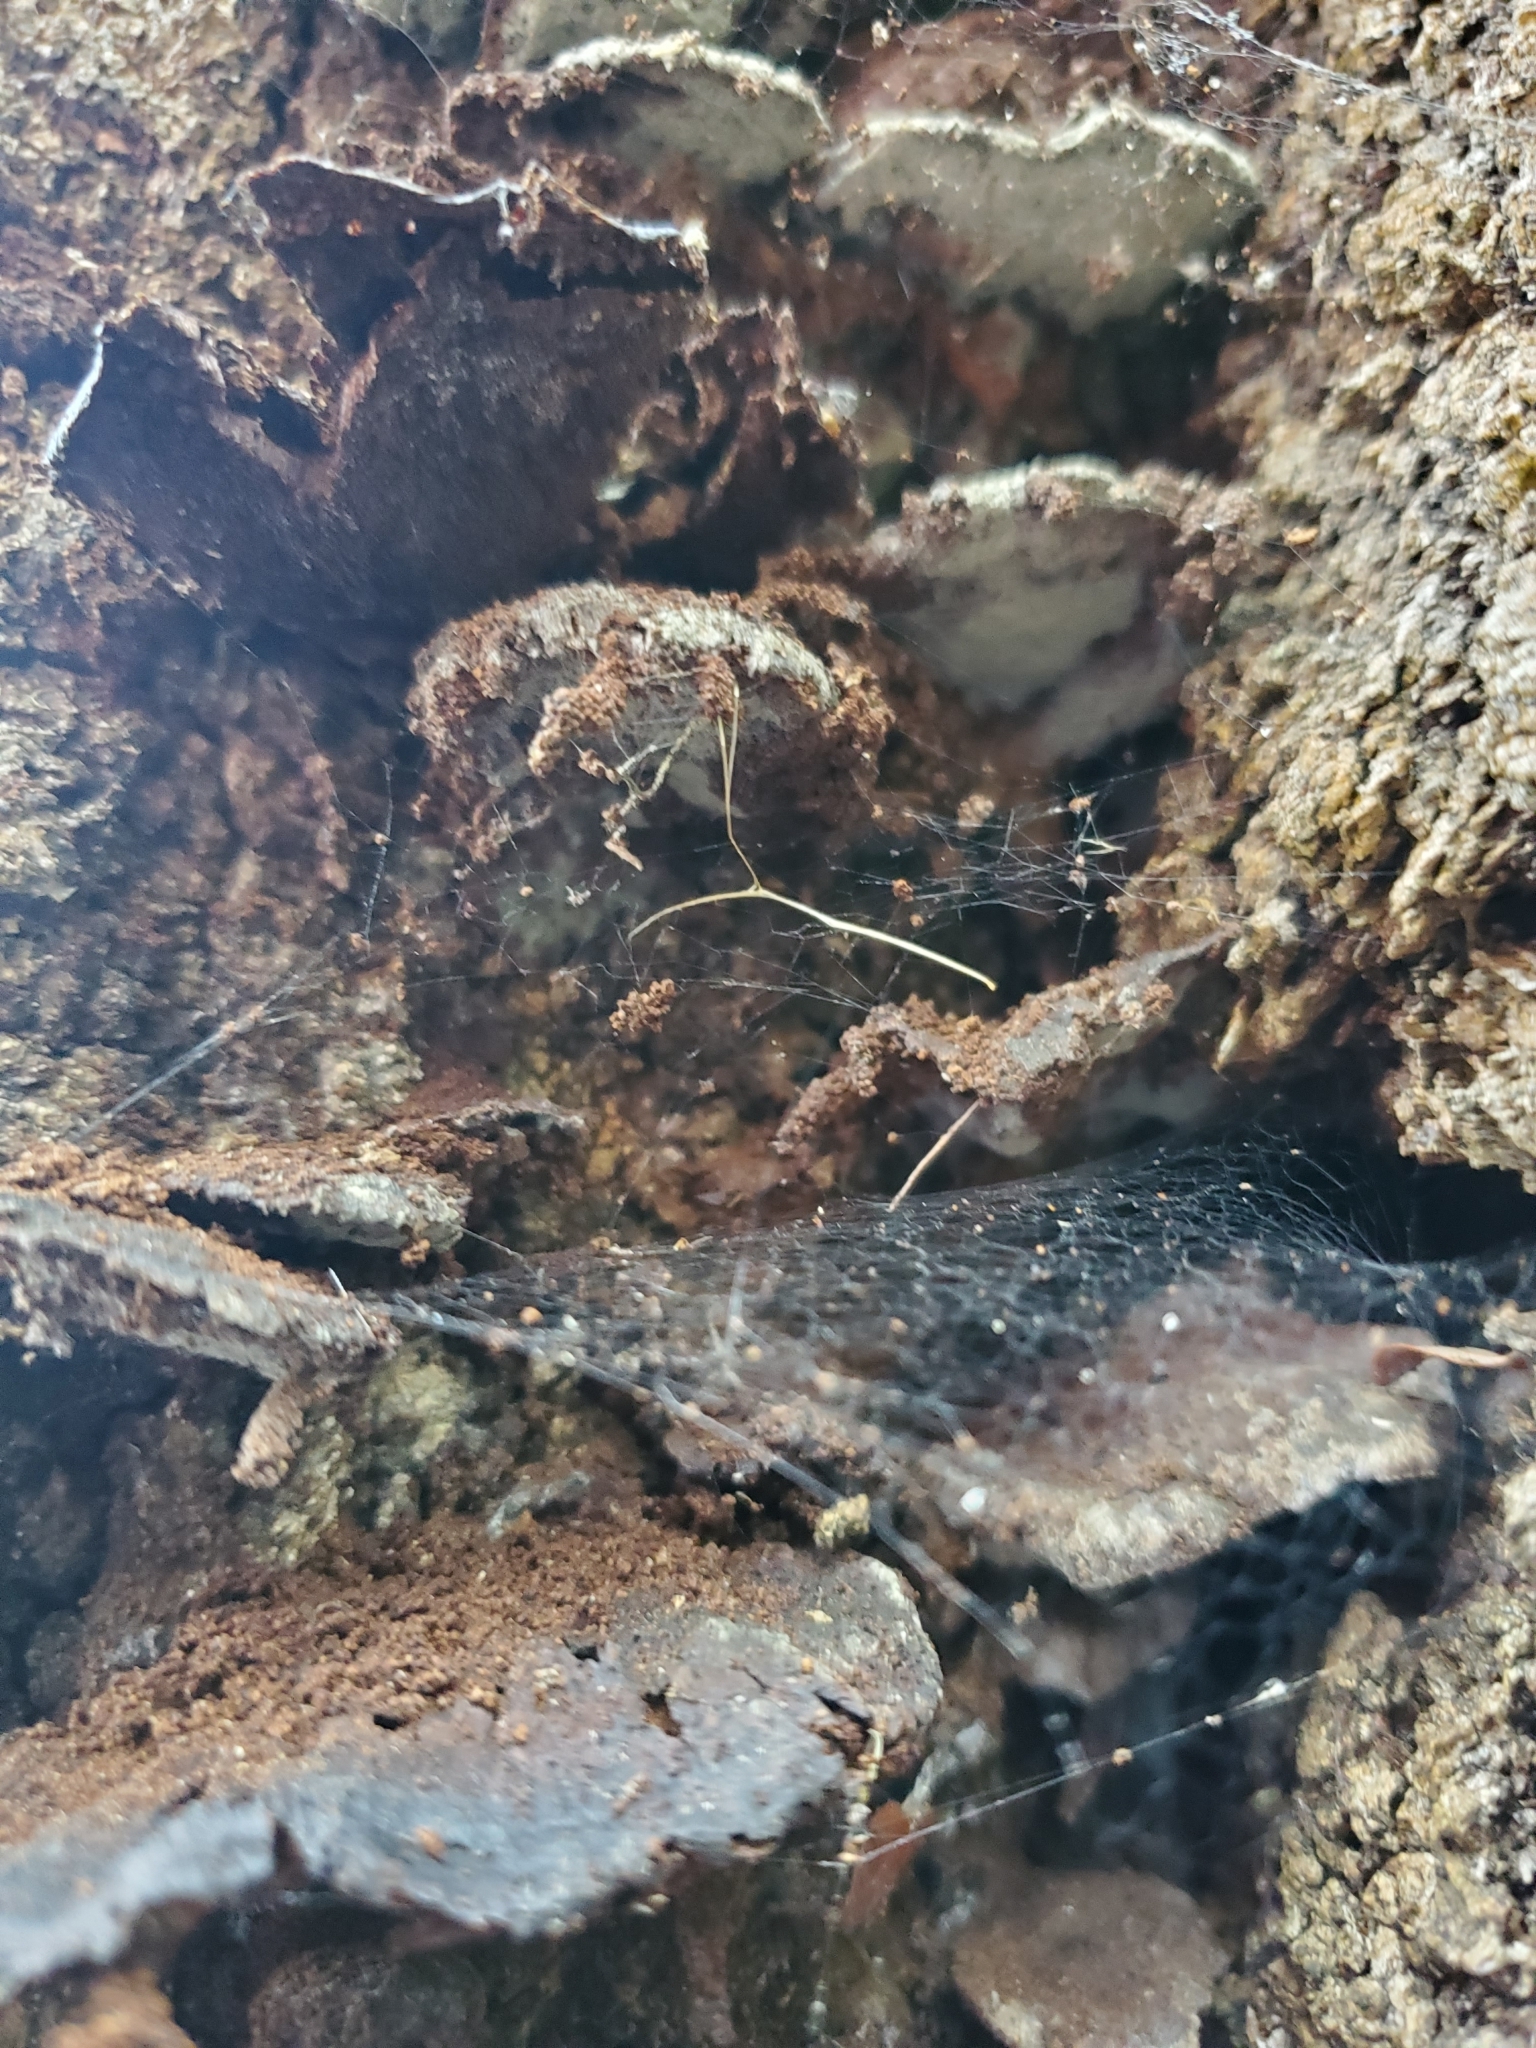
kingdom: Fungi
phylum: Basidiomycota
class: Agaricomycetes
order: Hymenochaetales
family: Hymenochaetaceae
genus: Nothonotus
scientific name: Nothonotus nothofagi
